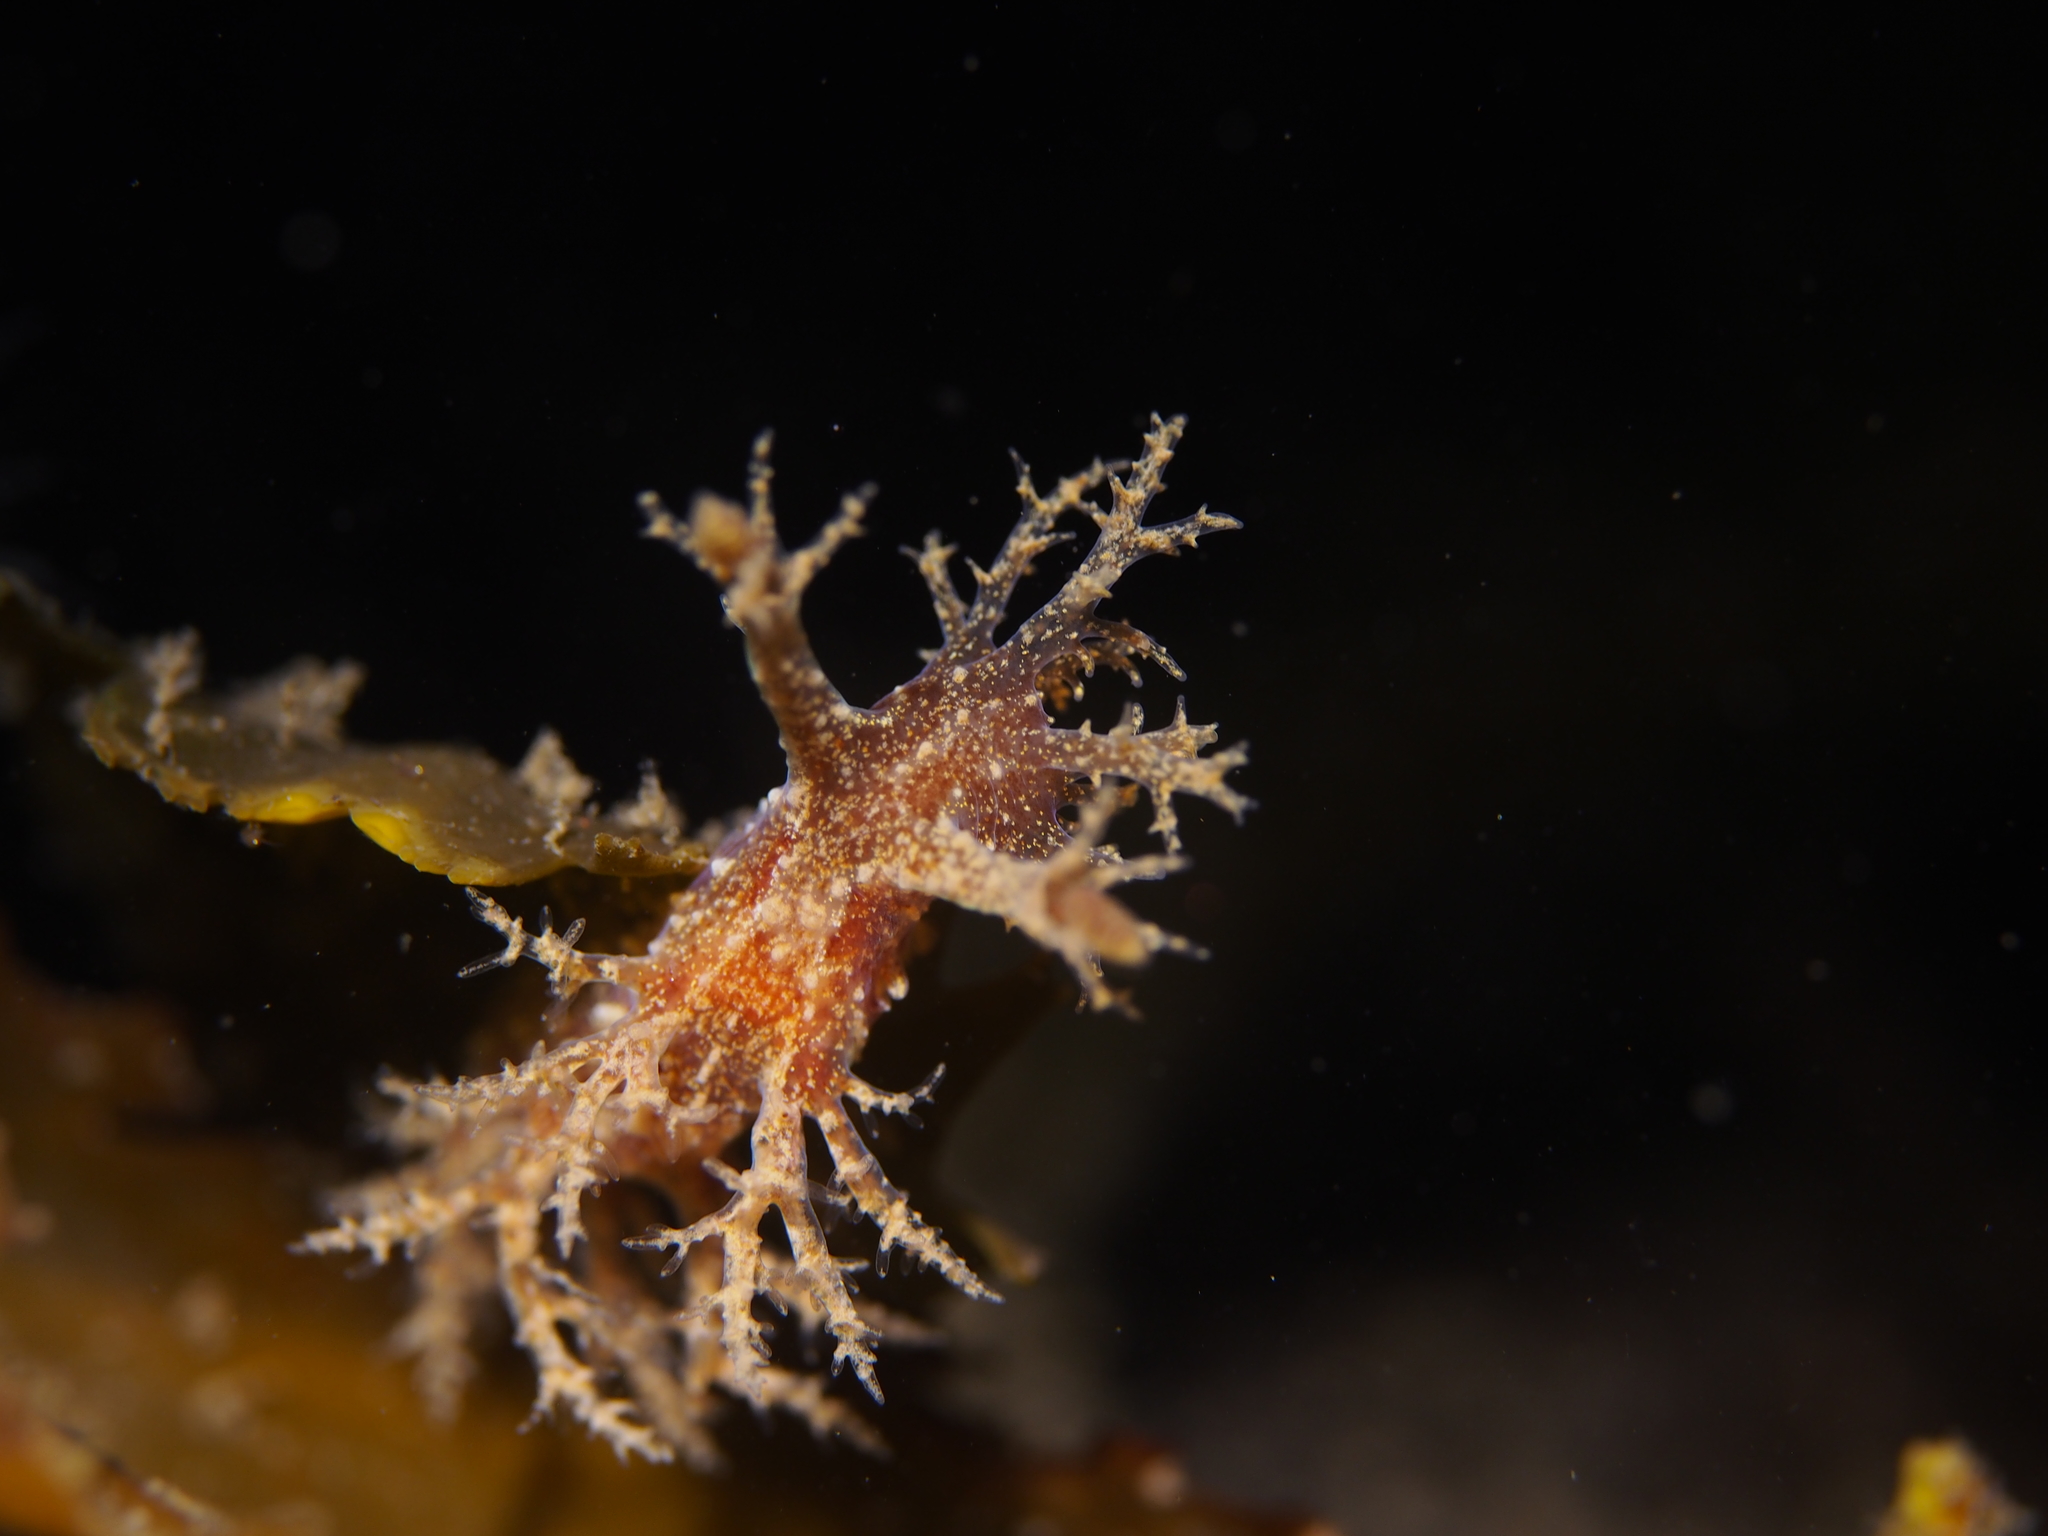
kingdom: Animalia
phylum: Mollusca
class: Gastropoda
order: Nudibranchia
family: Dendronotidae
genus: Dendronotus
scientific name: Dendronotus frondosus
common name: Bushy-backed nudibranch
